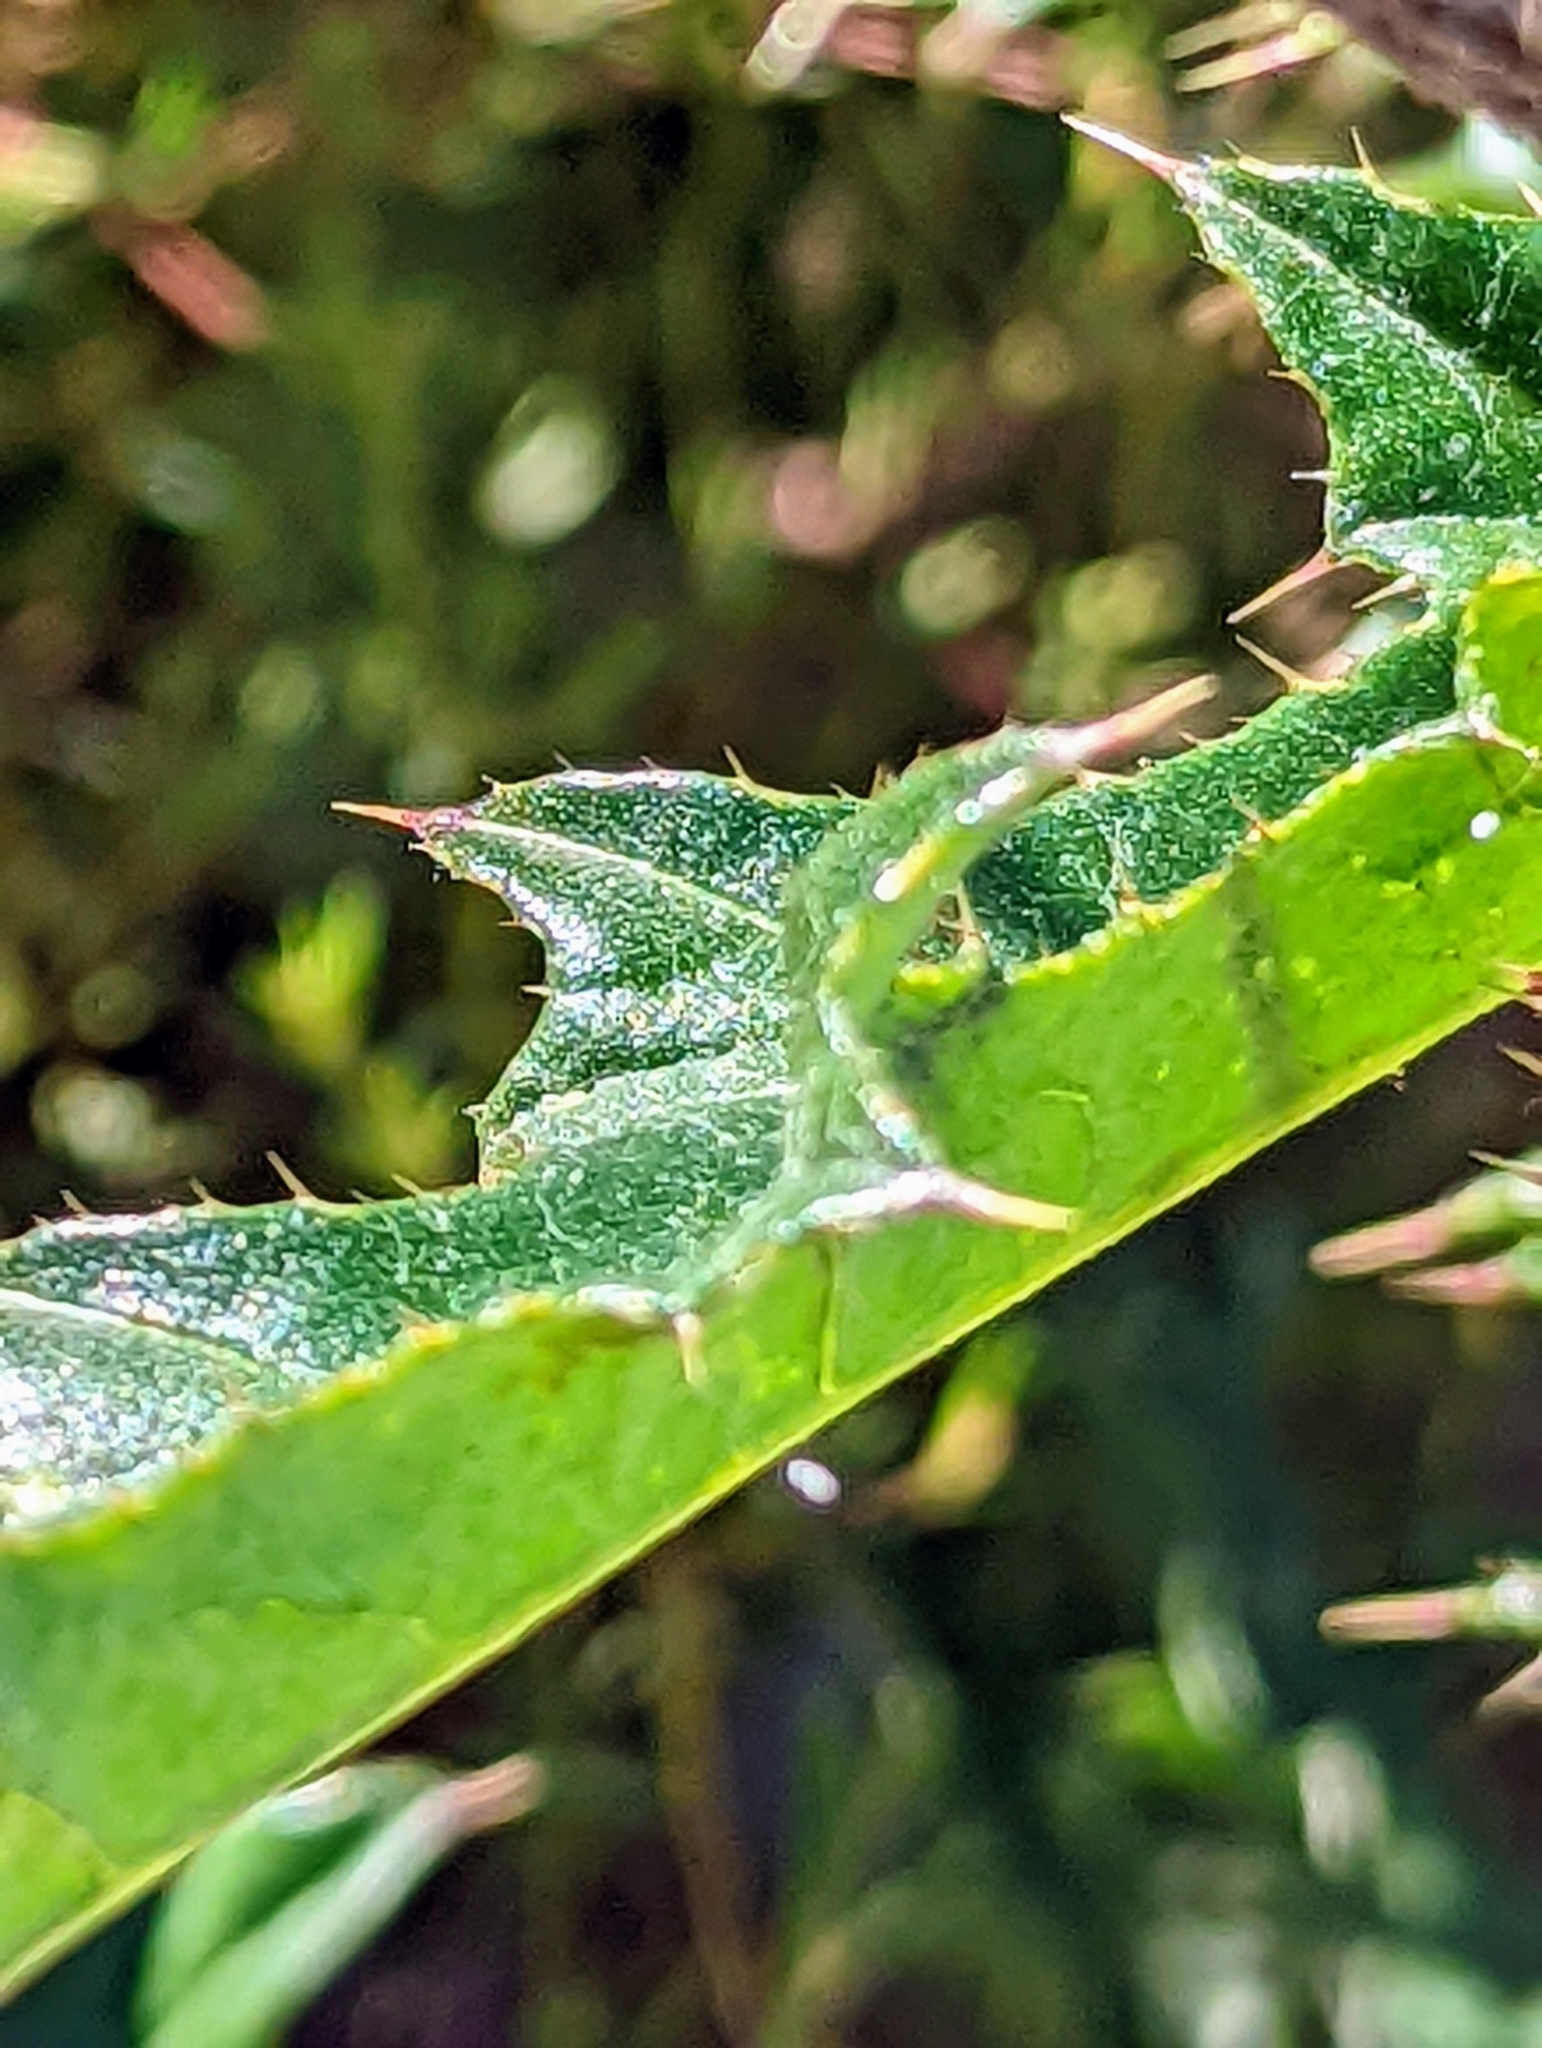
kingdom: Plantae
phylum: Tracheophyta
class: Magnoliopsida
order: Asterales
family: Asteraceae
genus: Cirsium
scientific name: Cirsium andersonii
